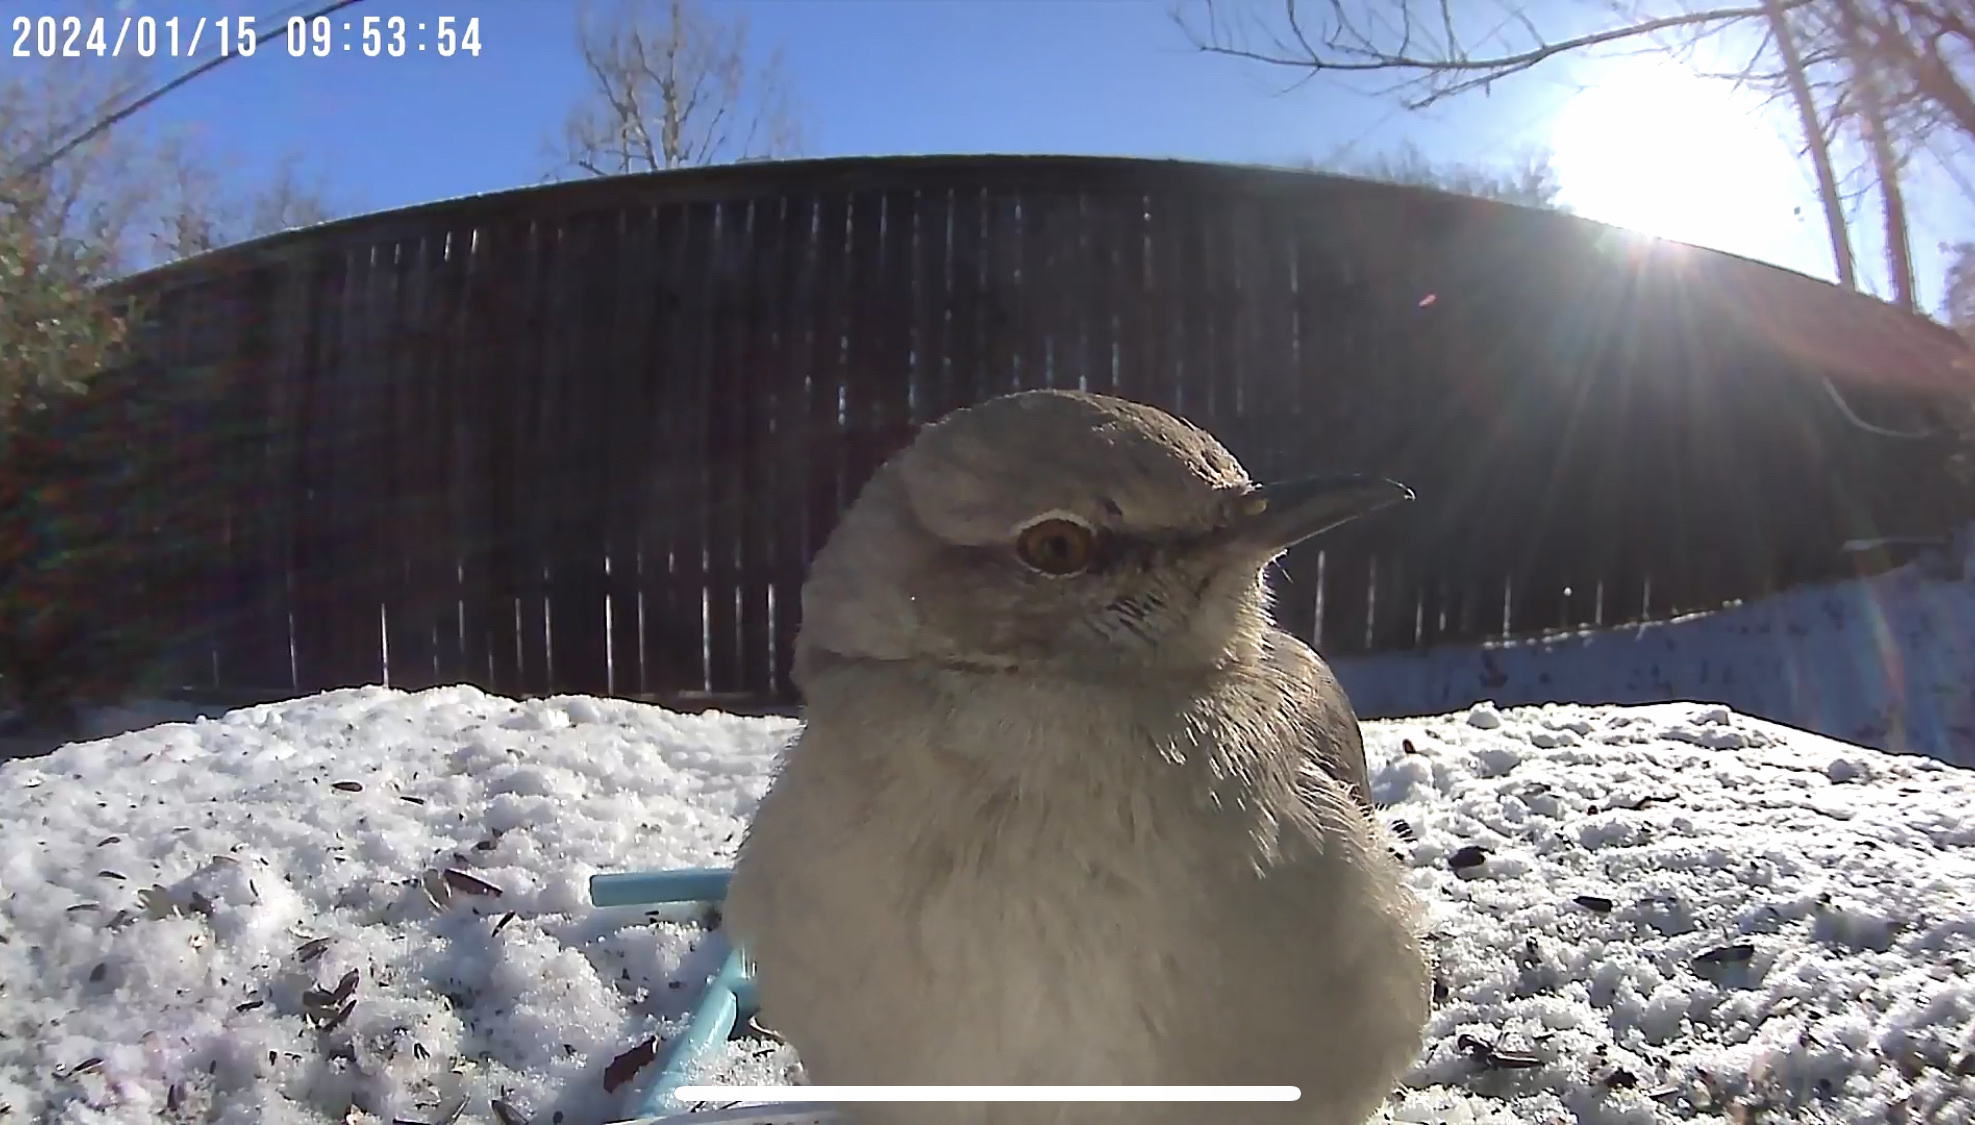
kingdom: Animalia
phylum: Chordata
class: Aves
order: Passeriformes
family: Mimidae
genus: Mimus
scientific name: Mimus polyglottos
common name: Northern mockingbird
